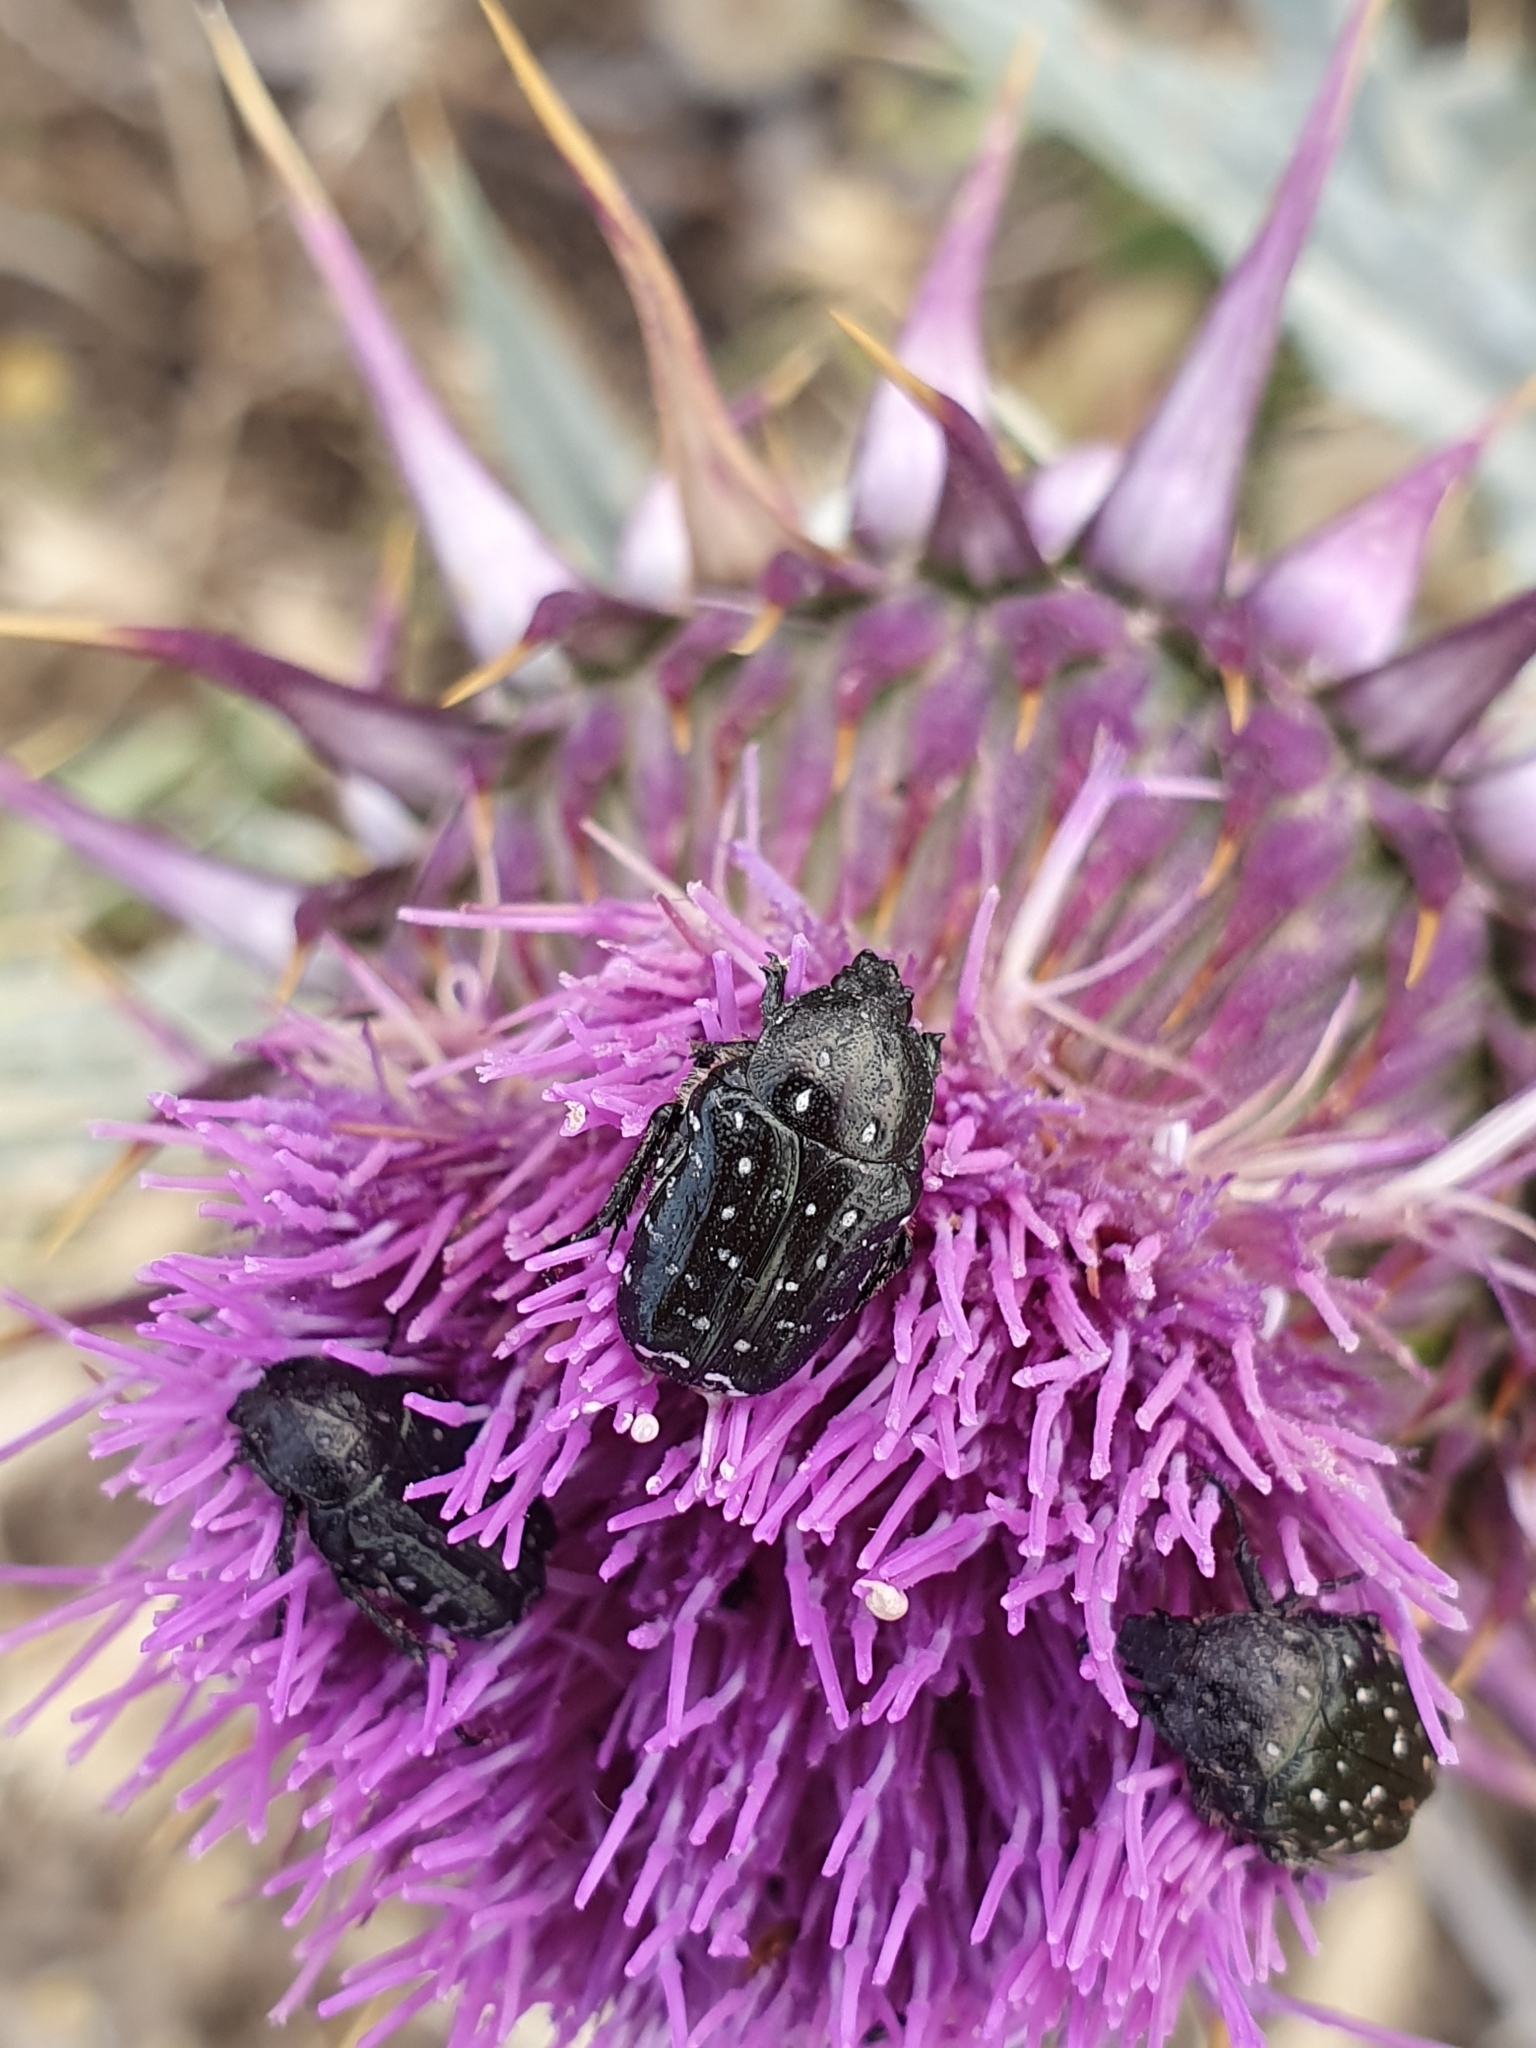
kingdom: Animalia
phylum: Arthropoda
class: Insecta
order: Coleoptera
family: Scarabaeidae
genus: Oxythyrea
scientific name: Oxythyrea funesta
